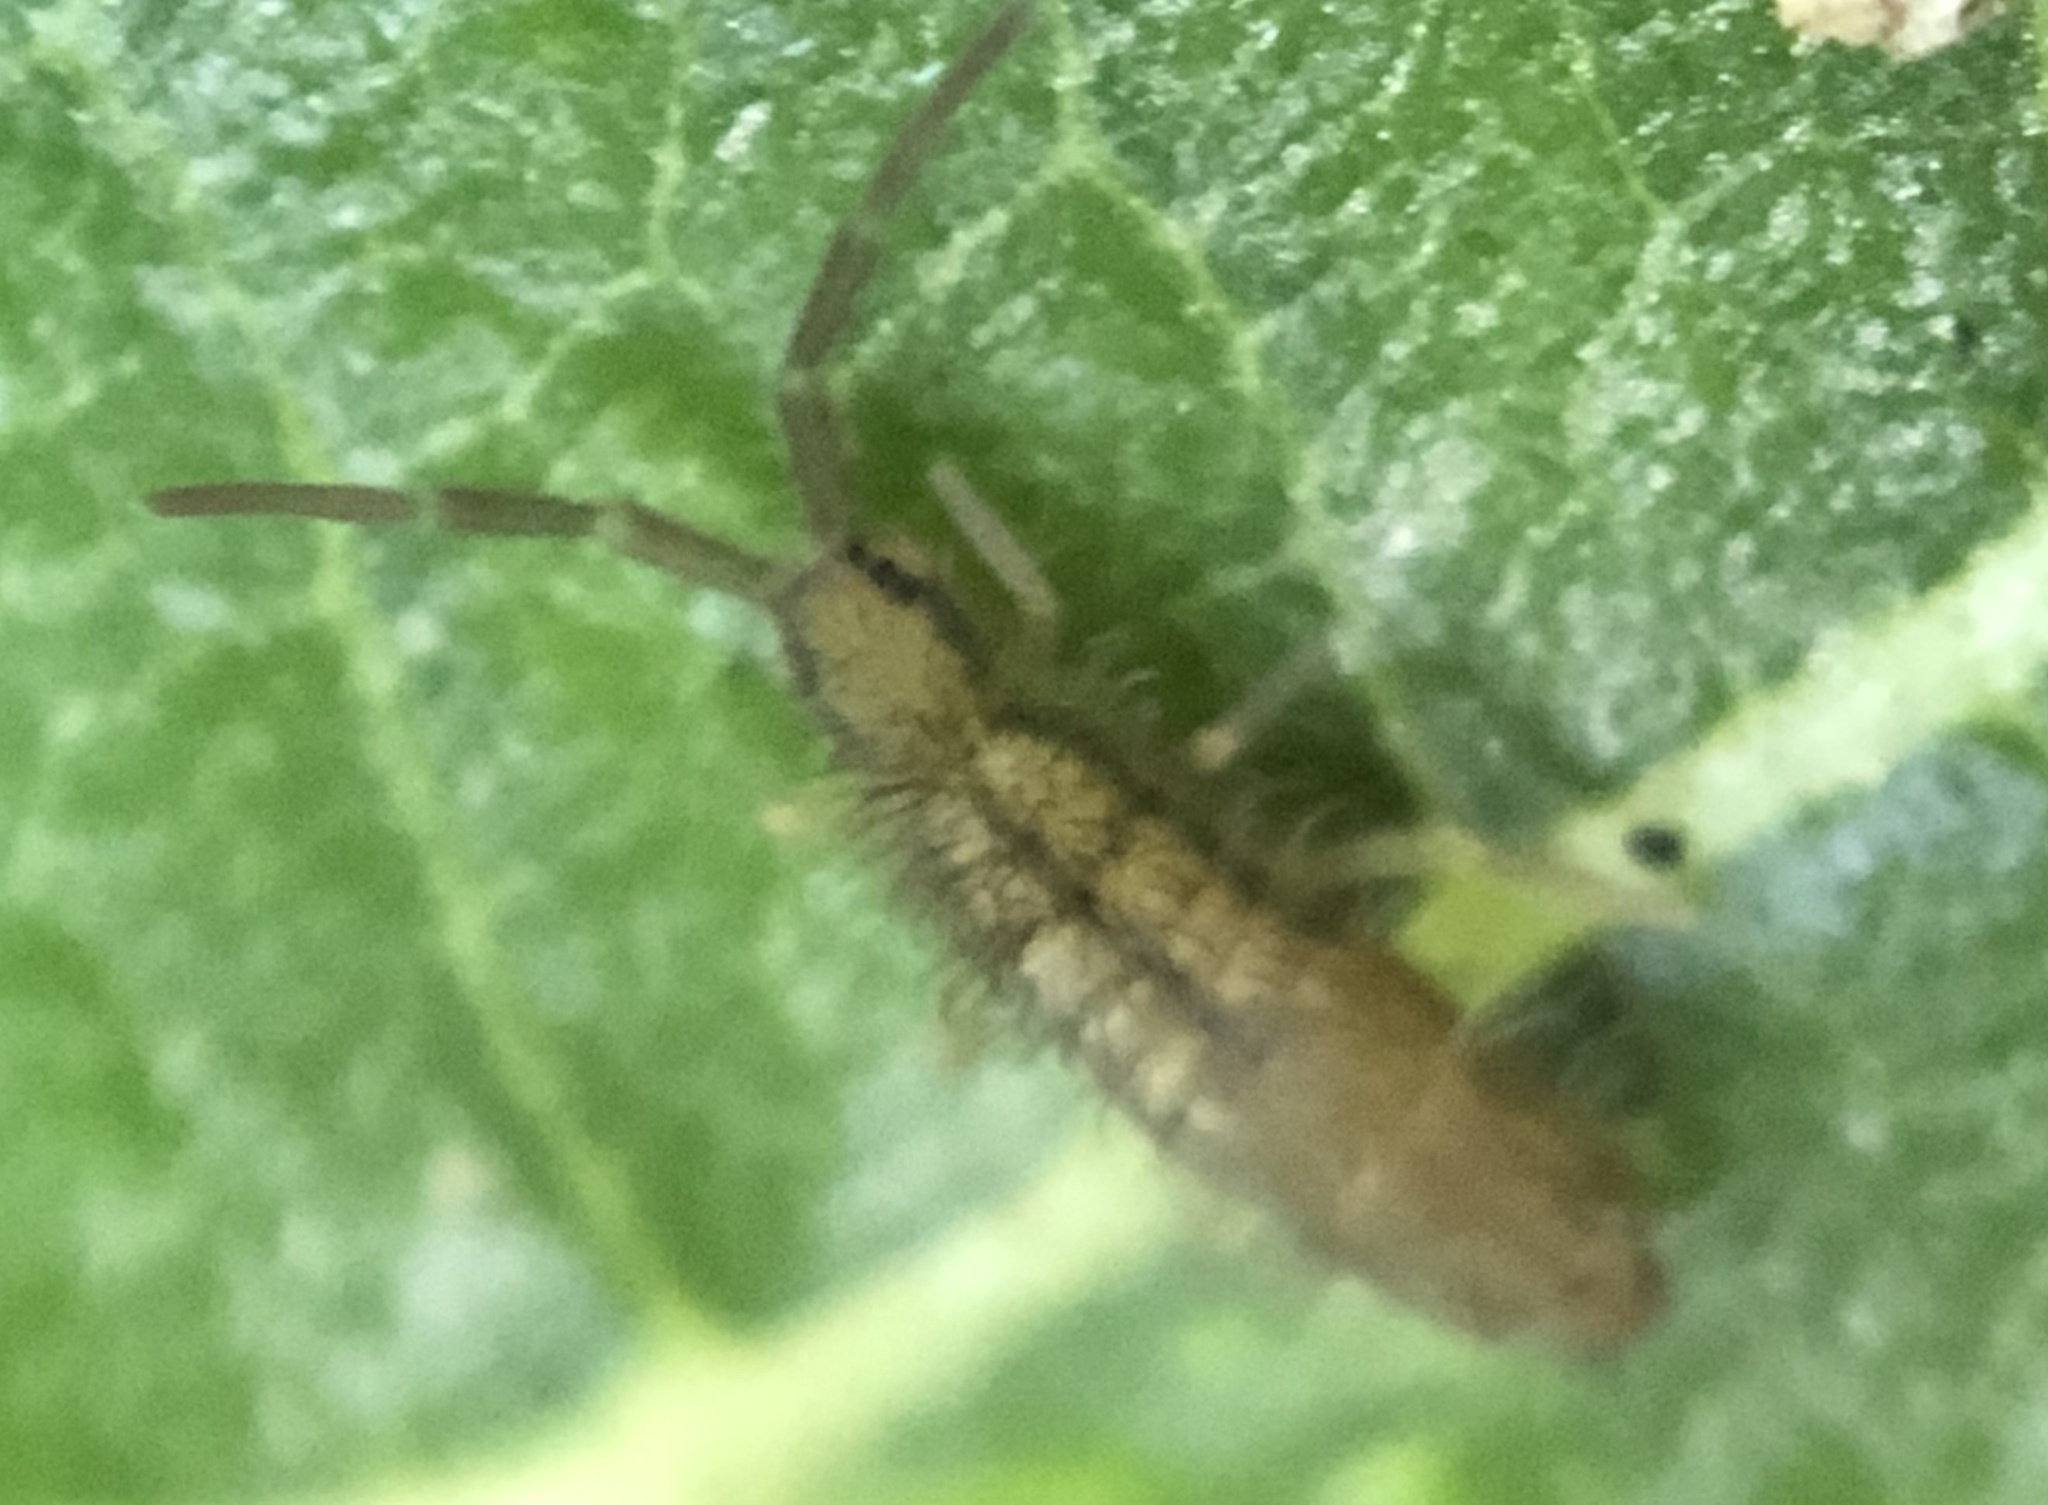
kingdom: Animalia
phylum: Arthropoda
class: Collembola
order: Entomobryomorpha
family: Entomobryidae
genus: Homidia
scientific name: Homidia socia
